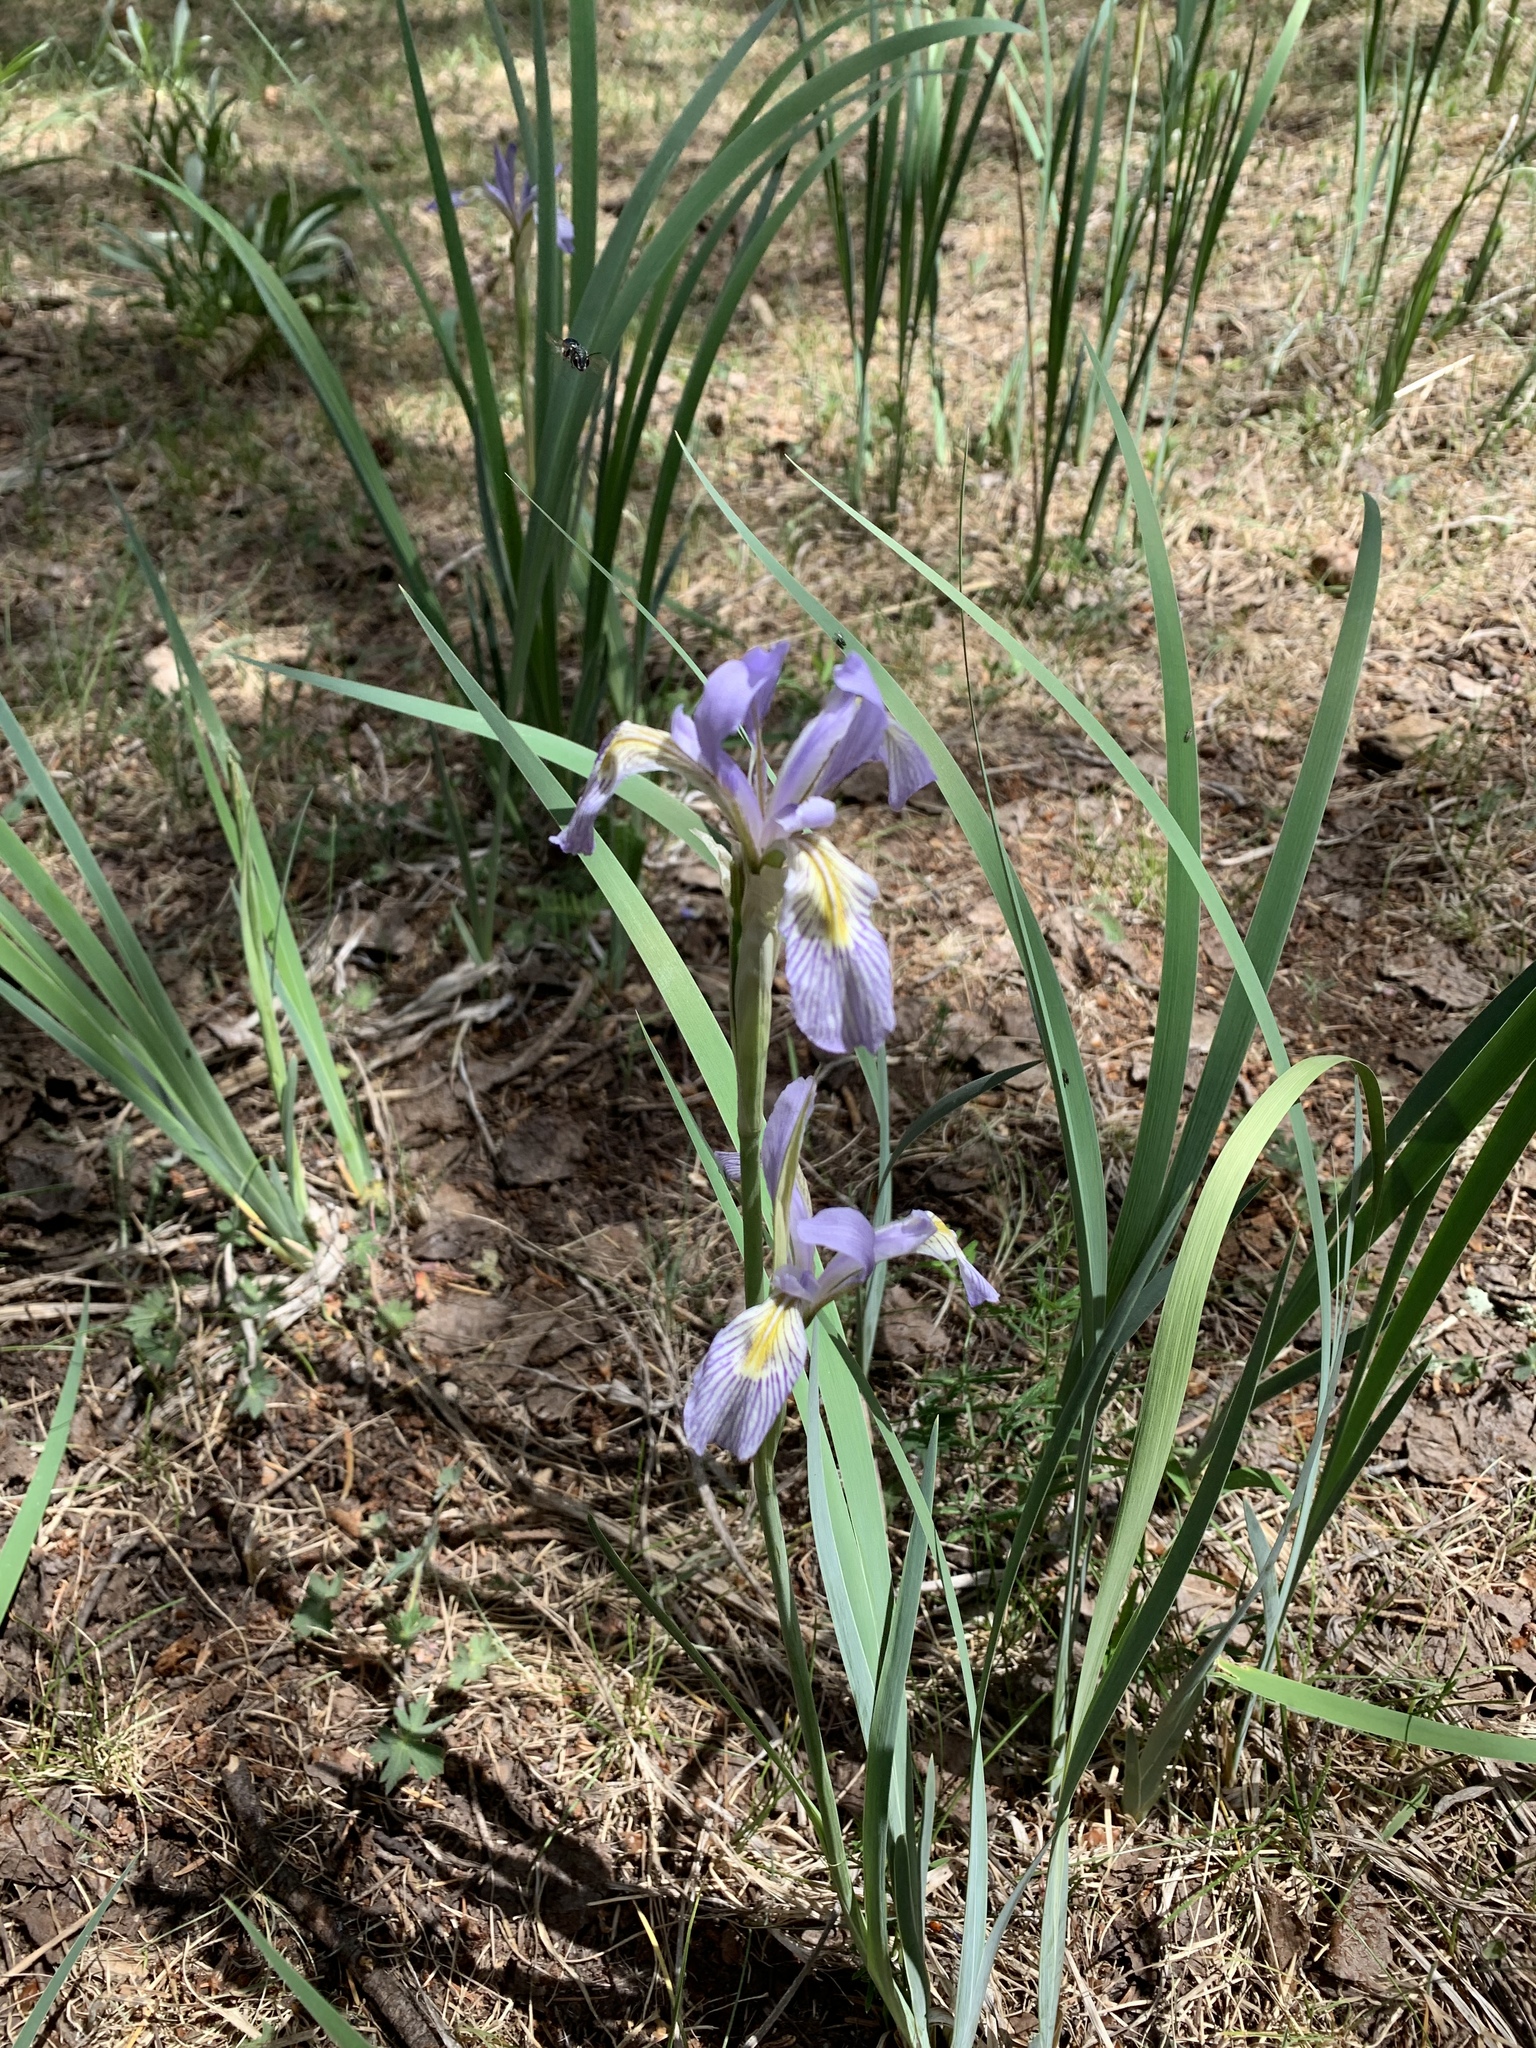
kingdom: Plantae
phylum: Tracheophyta
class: Liliopsida
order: Asparagales
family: Iridaceae
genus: Iris
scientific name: Iris missouriensis
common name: Rocky mountain iris
